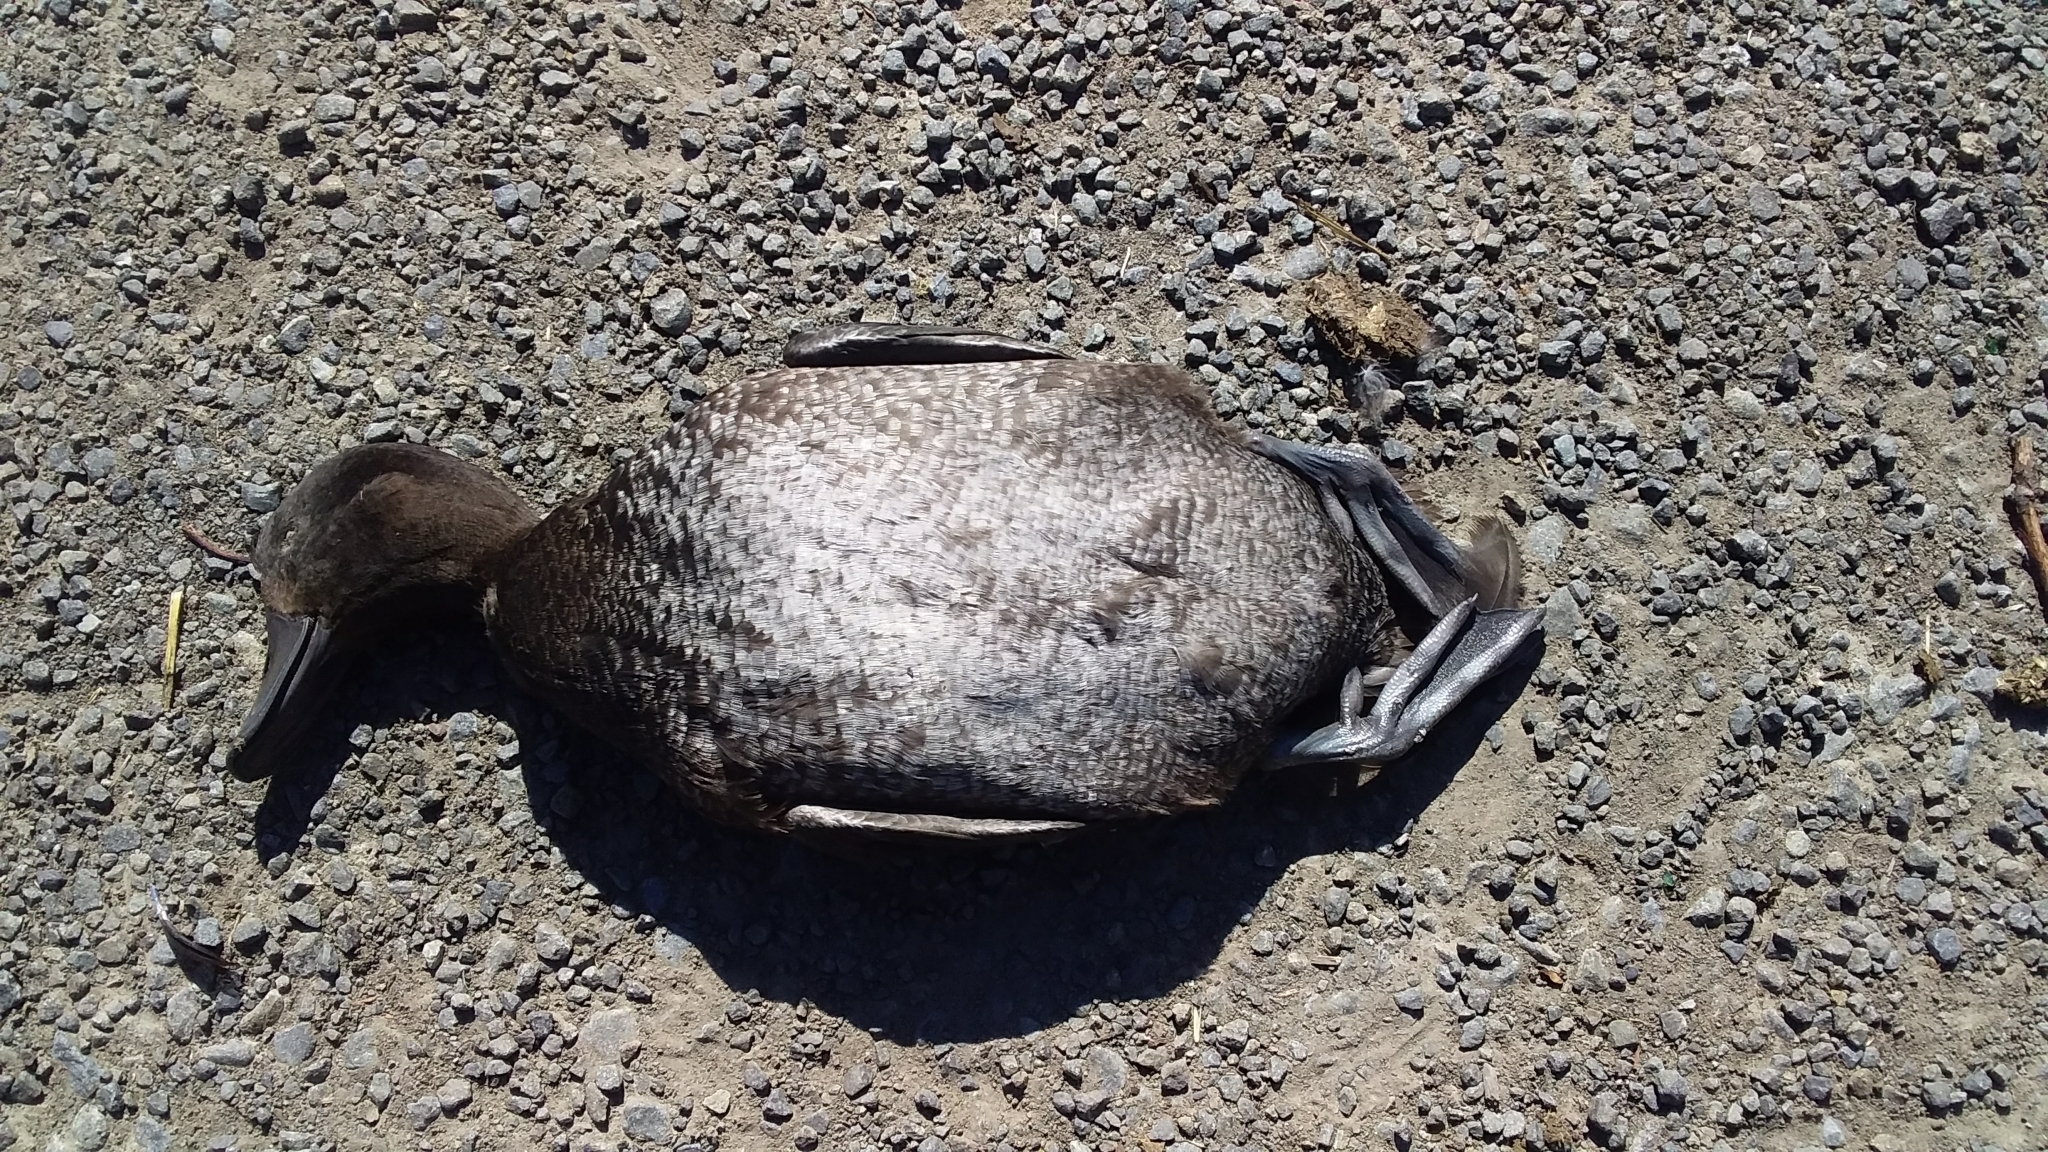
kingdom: Animalia
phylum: Chordata
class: Aves
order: Anseriformes
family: Anatidae
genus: Aythya
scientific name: Aythya novaeseelandiae
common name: New zealand scaup
